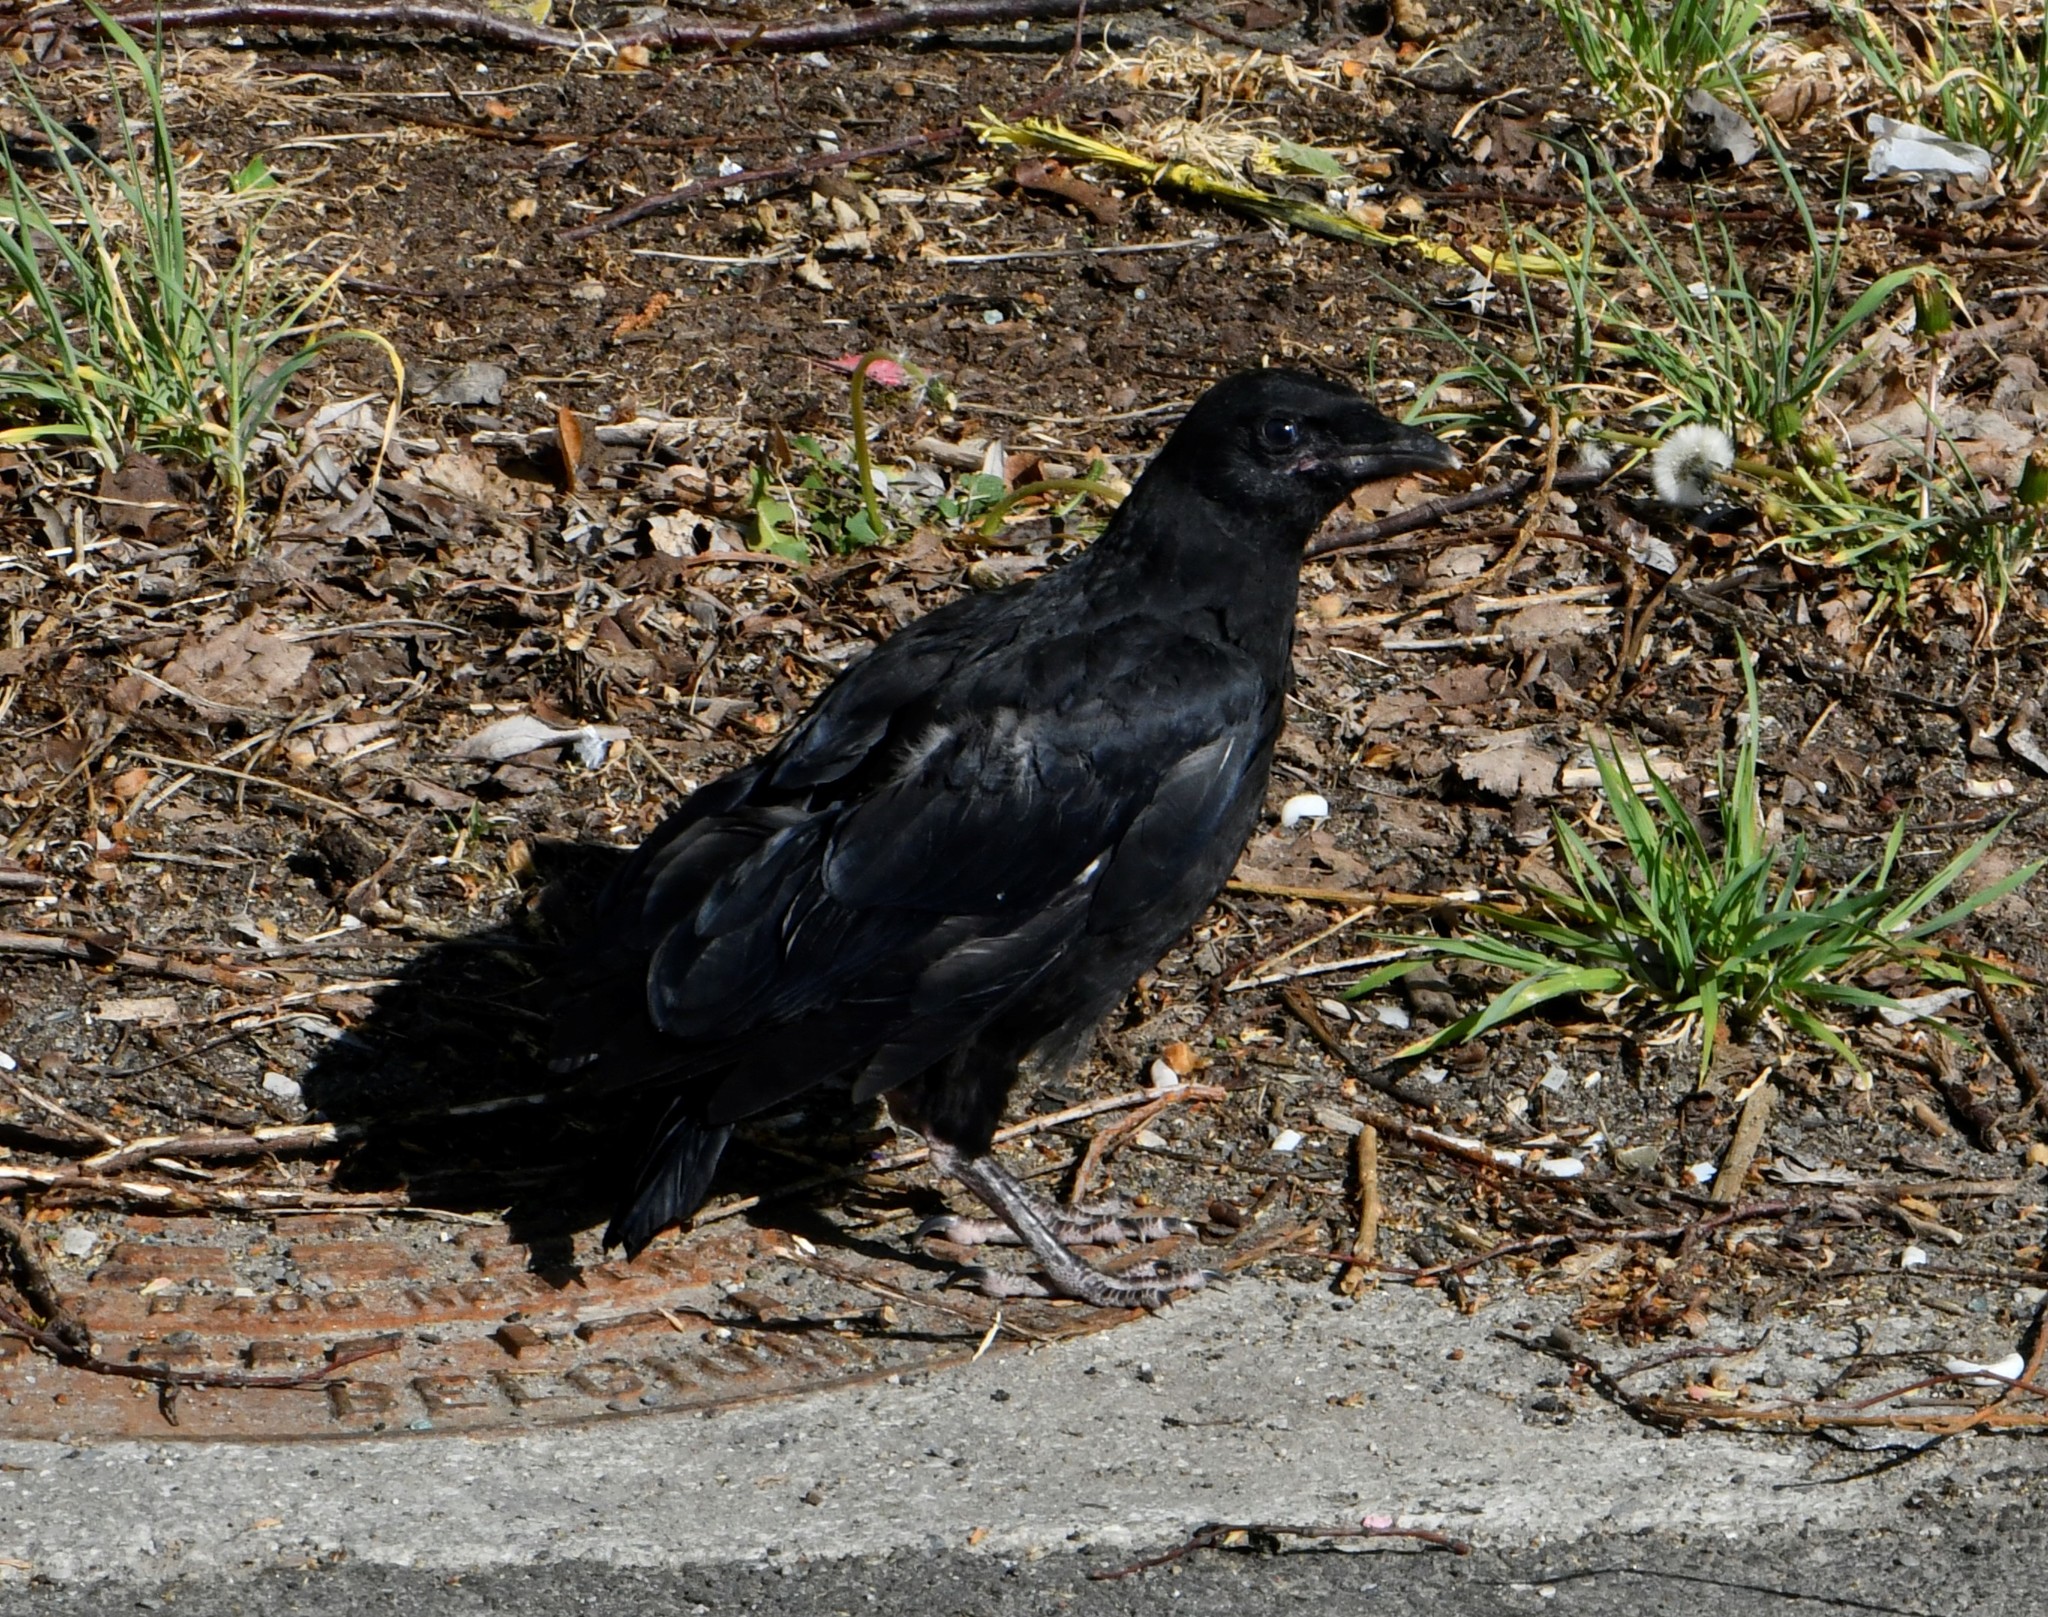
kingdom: Animalia
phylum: Chordata
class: Aves
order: Passeriformes
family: Corvidae
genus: Corvus
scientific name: Corvus corone
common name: Carrion crow
